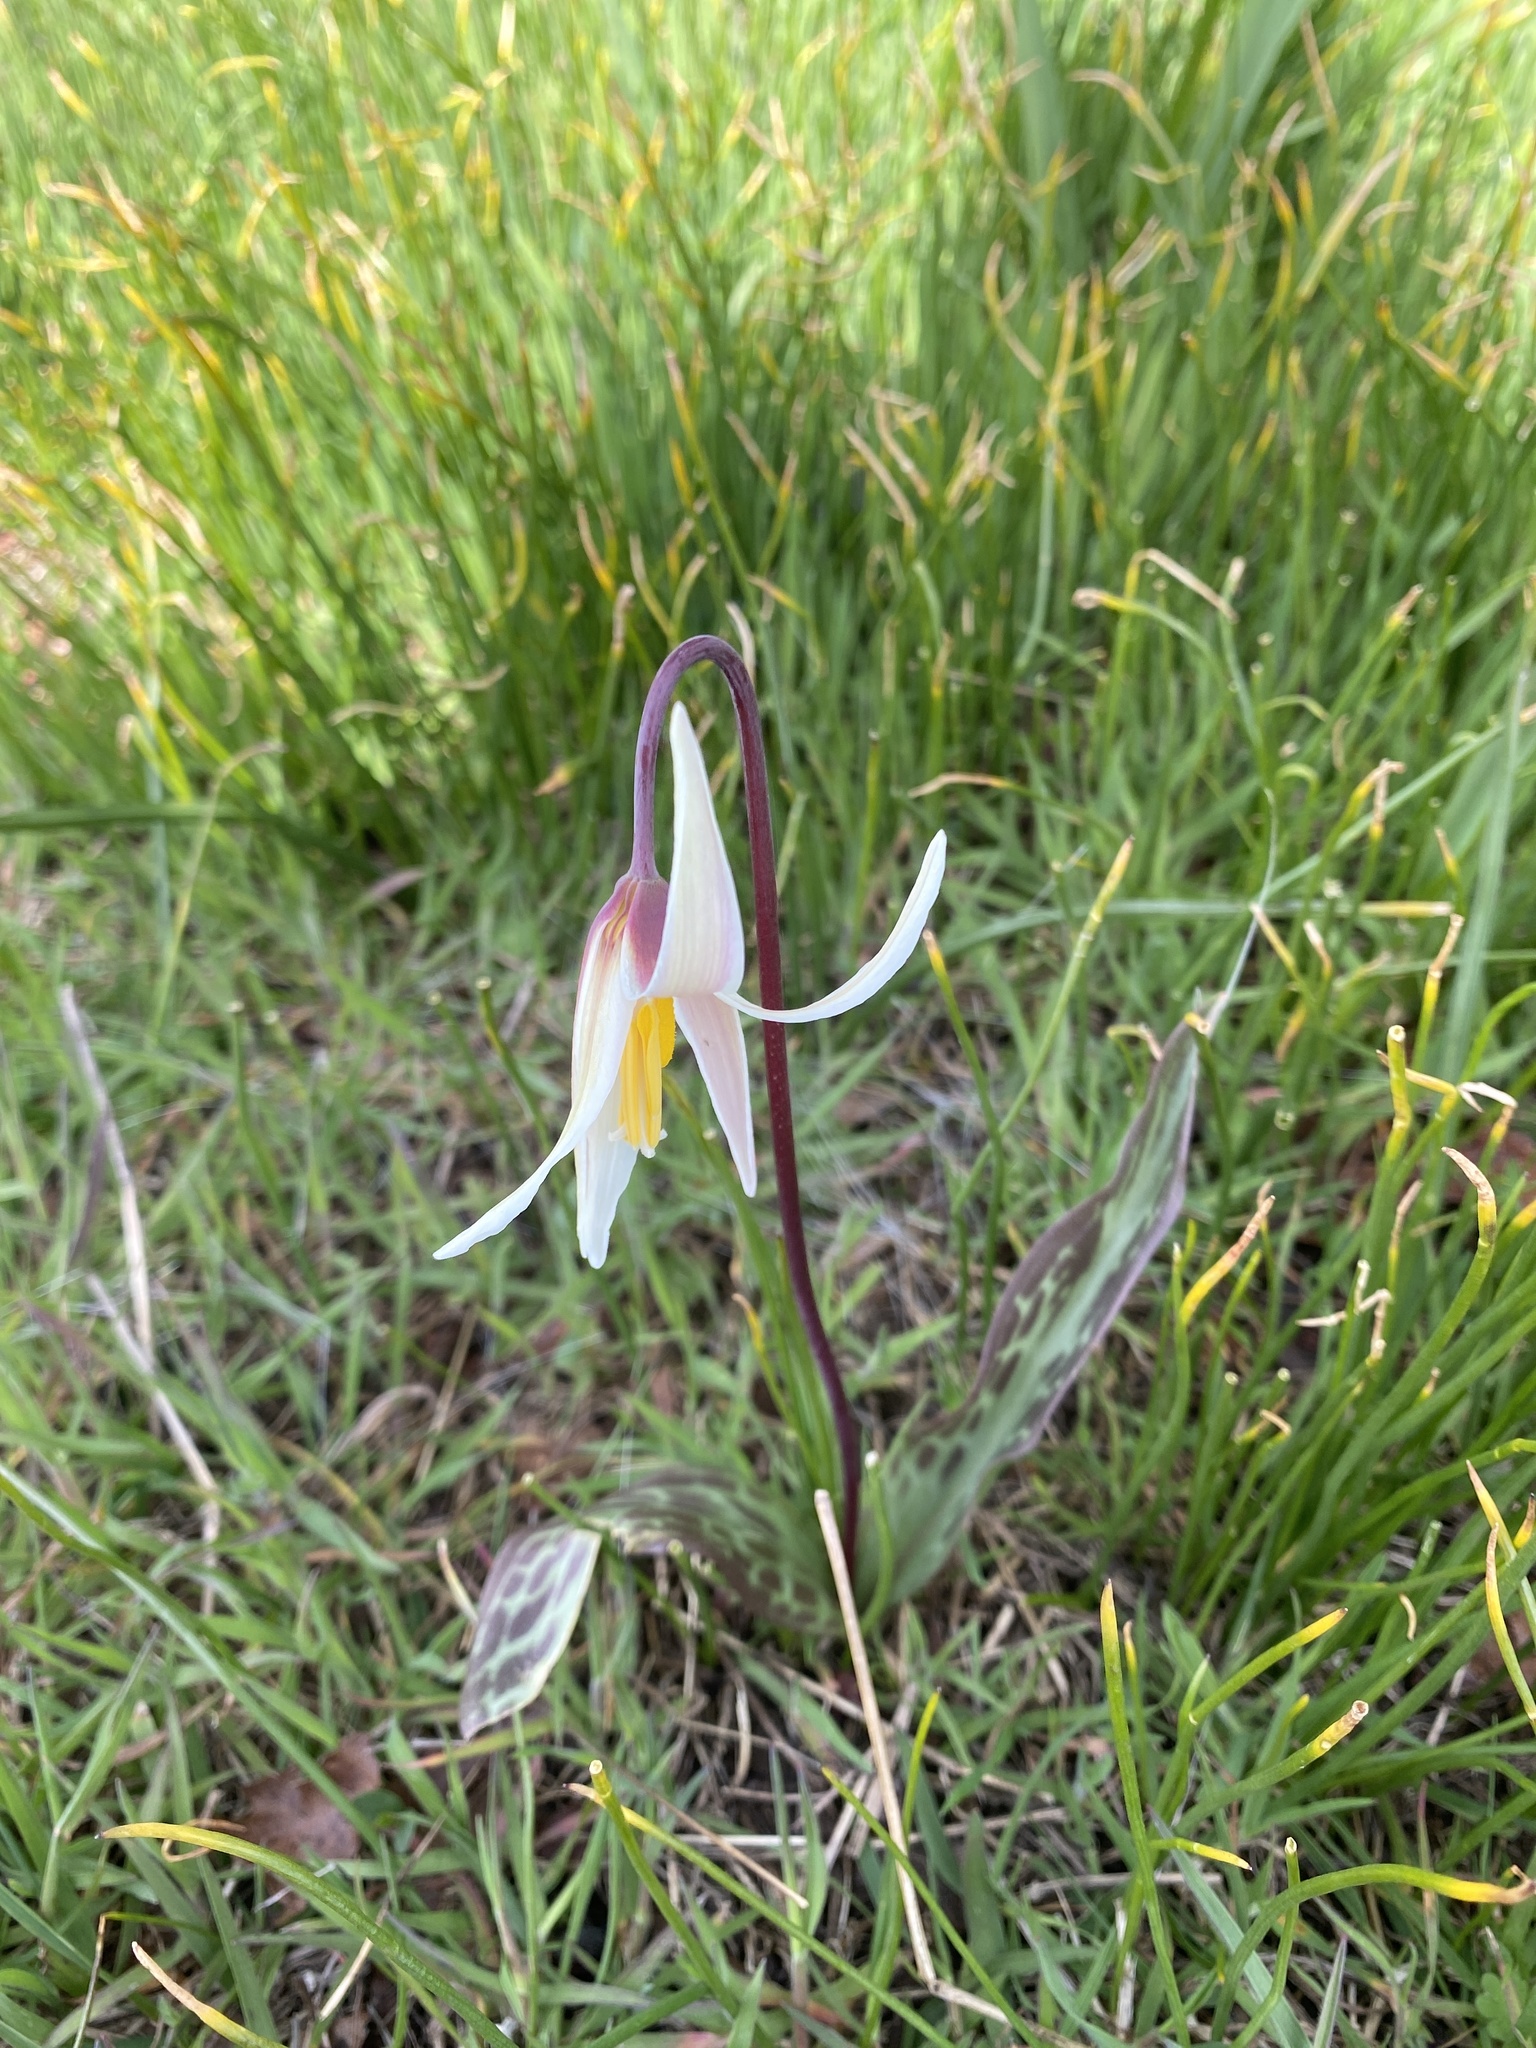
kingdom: Plantae
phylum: Tracheophyta
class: Liliopsida
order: Liliales
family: Liliaceae
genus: Erythronium
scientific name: Erythronium oregonum
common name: Giant adder's-tongue
